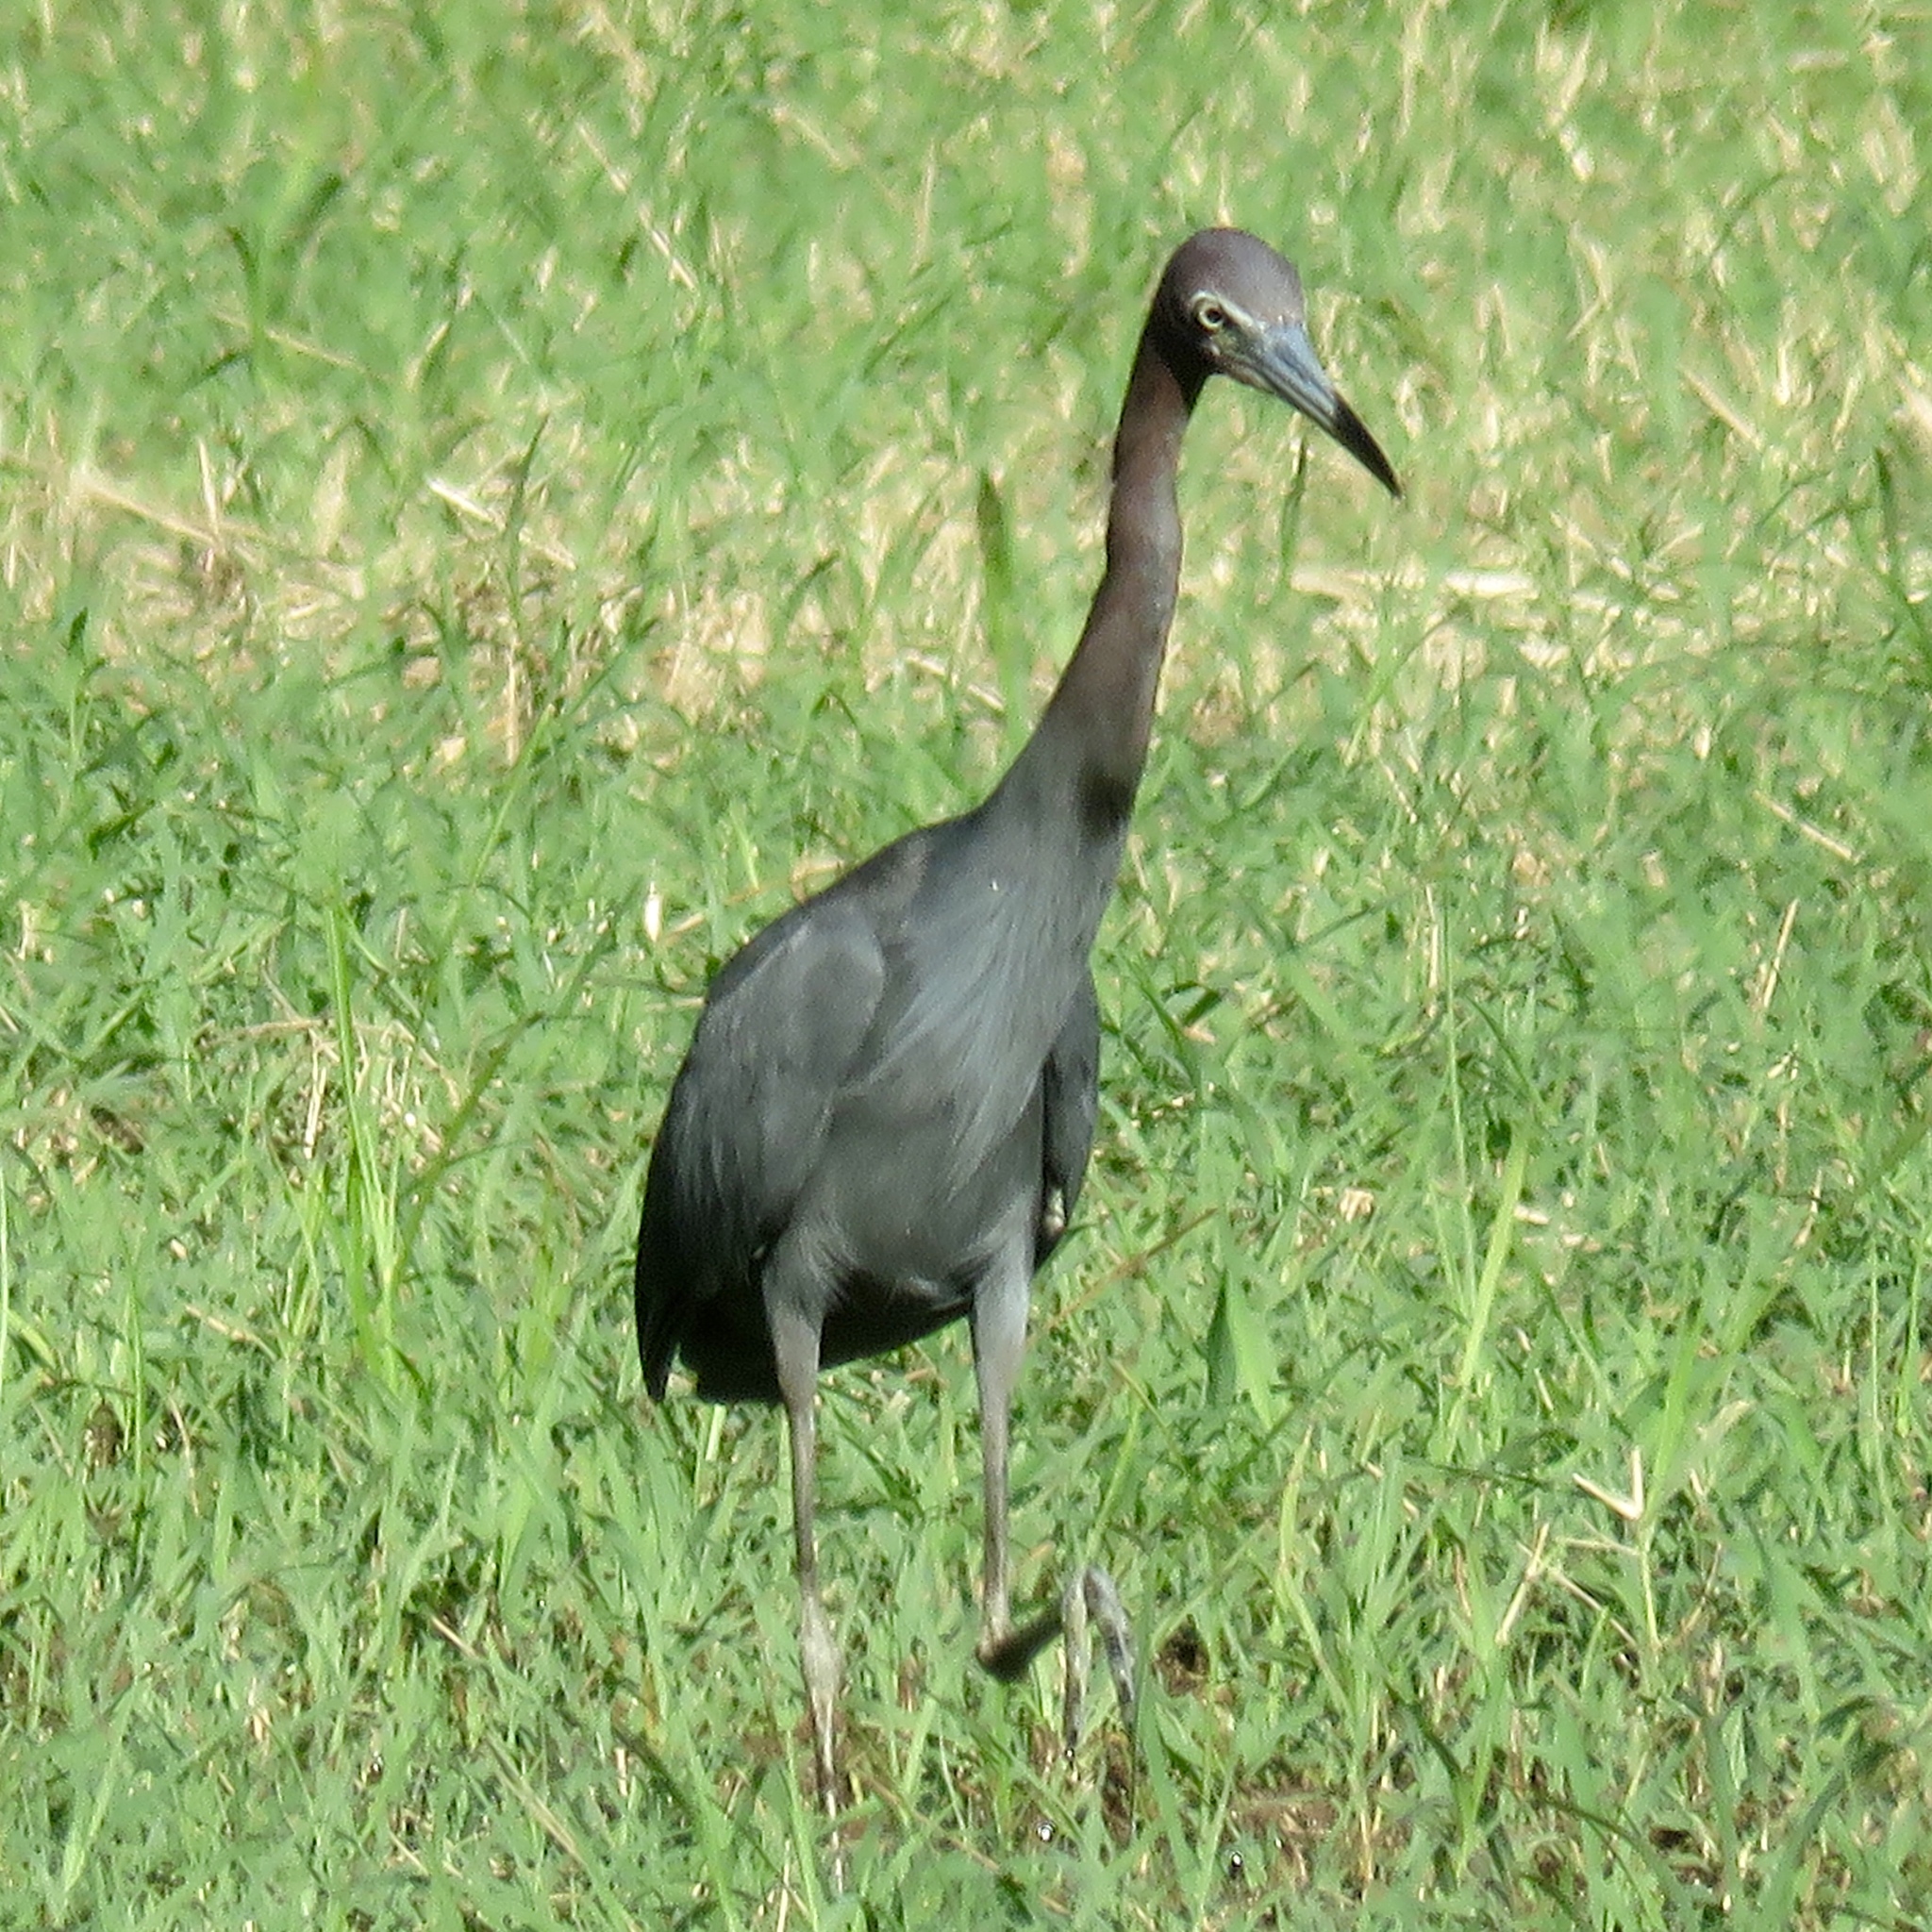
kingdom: Animalia
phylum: Chordata
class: Aves
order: Pelecaniformes
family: Ardeidae
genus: Egretta
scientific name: Egretta caerulea
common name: Little blue heron
